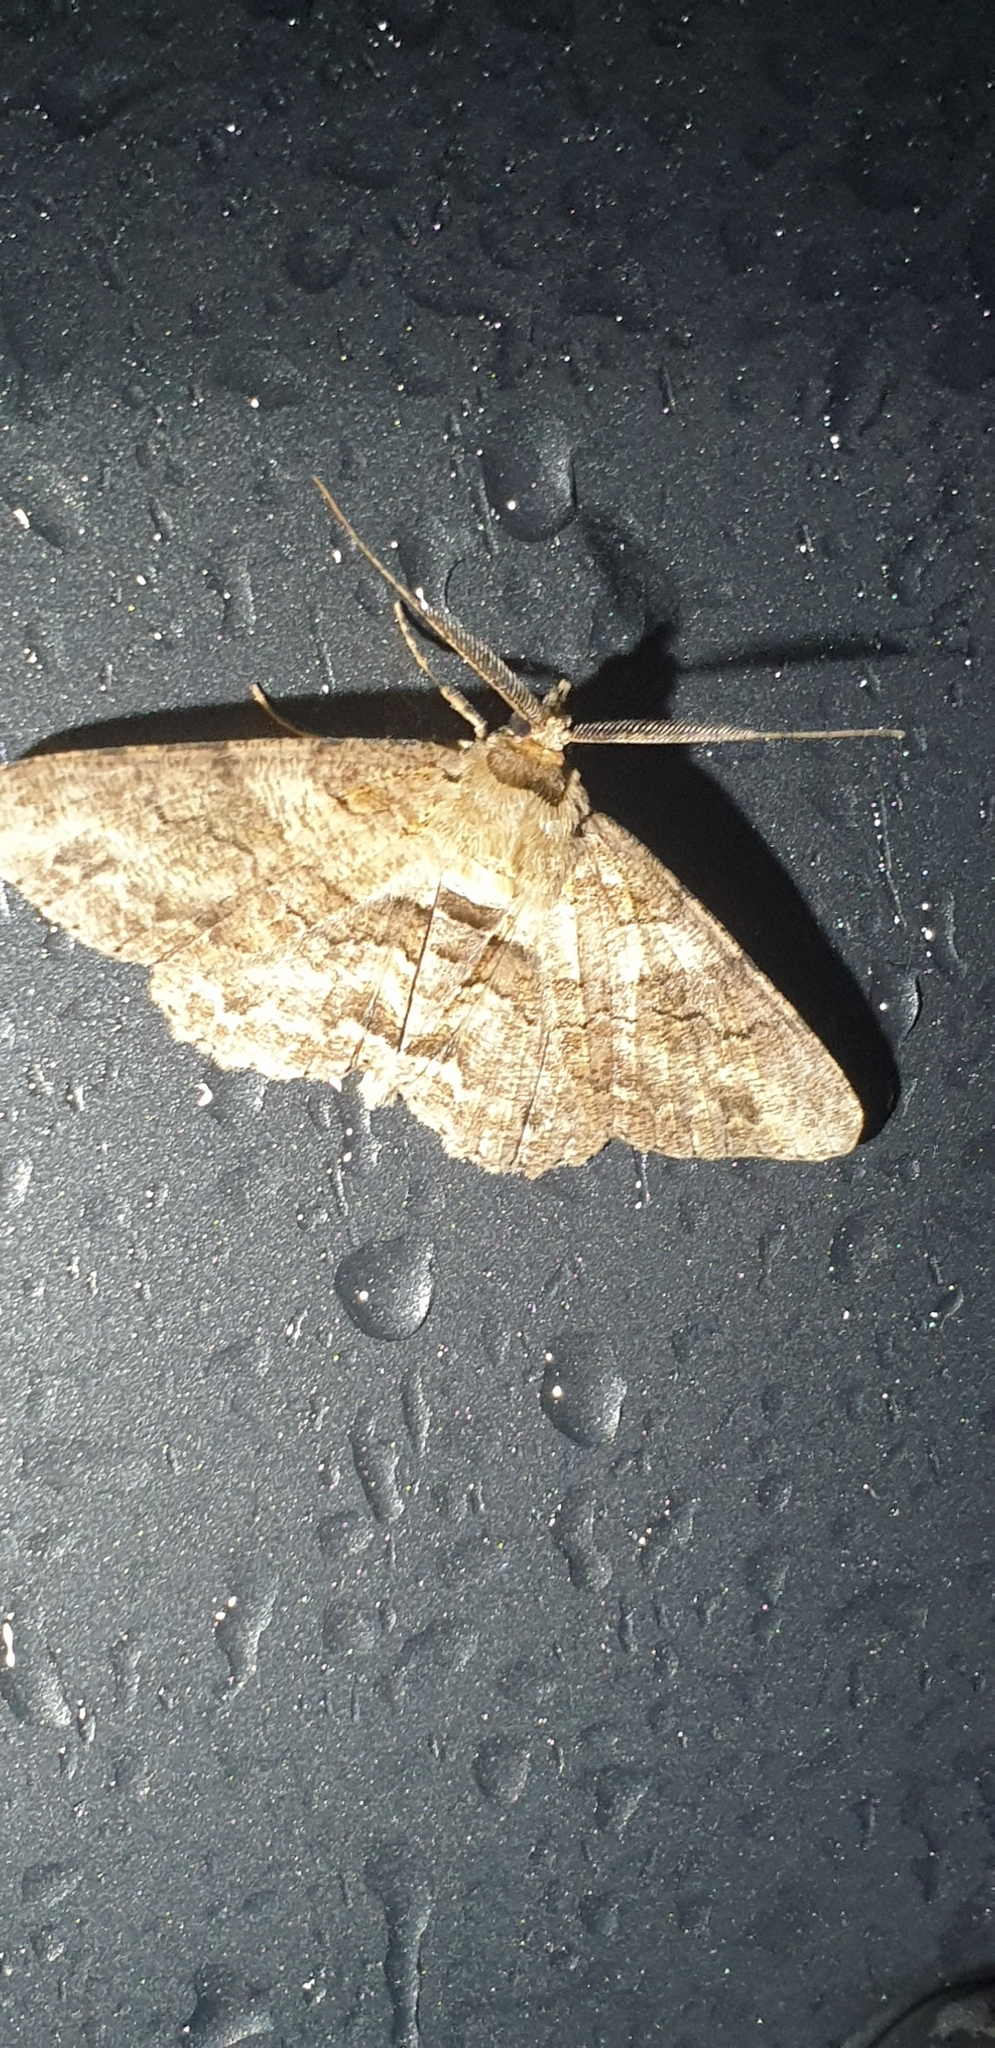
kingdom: Animalia
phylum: Arthropoda
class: Insecta
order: Lepidoptera
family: Geometridae
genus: Cleora
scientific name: Cleora repetita
